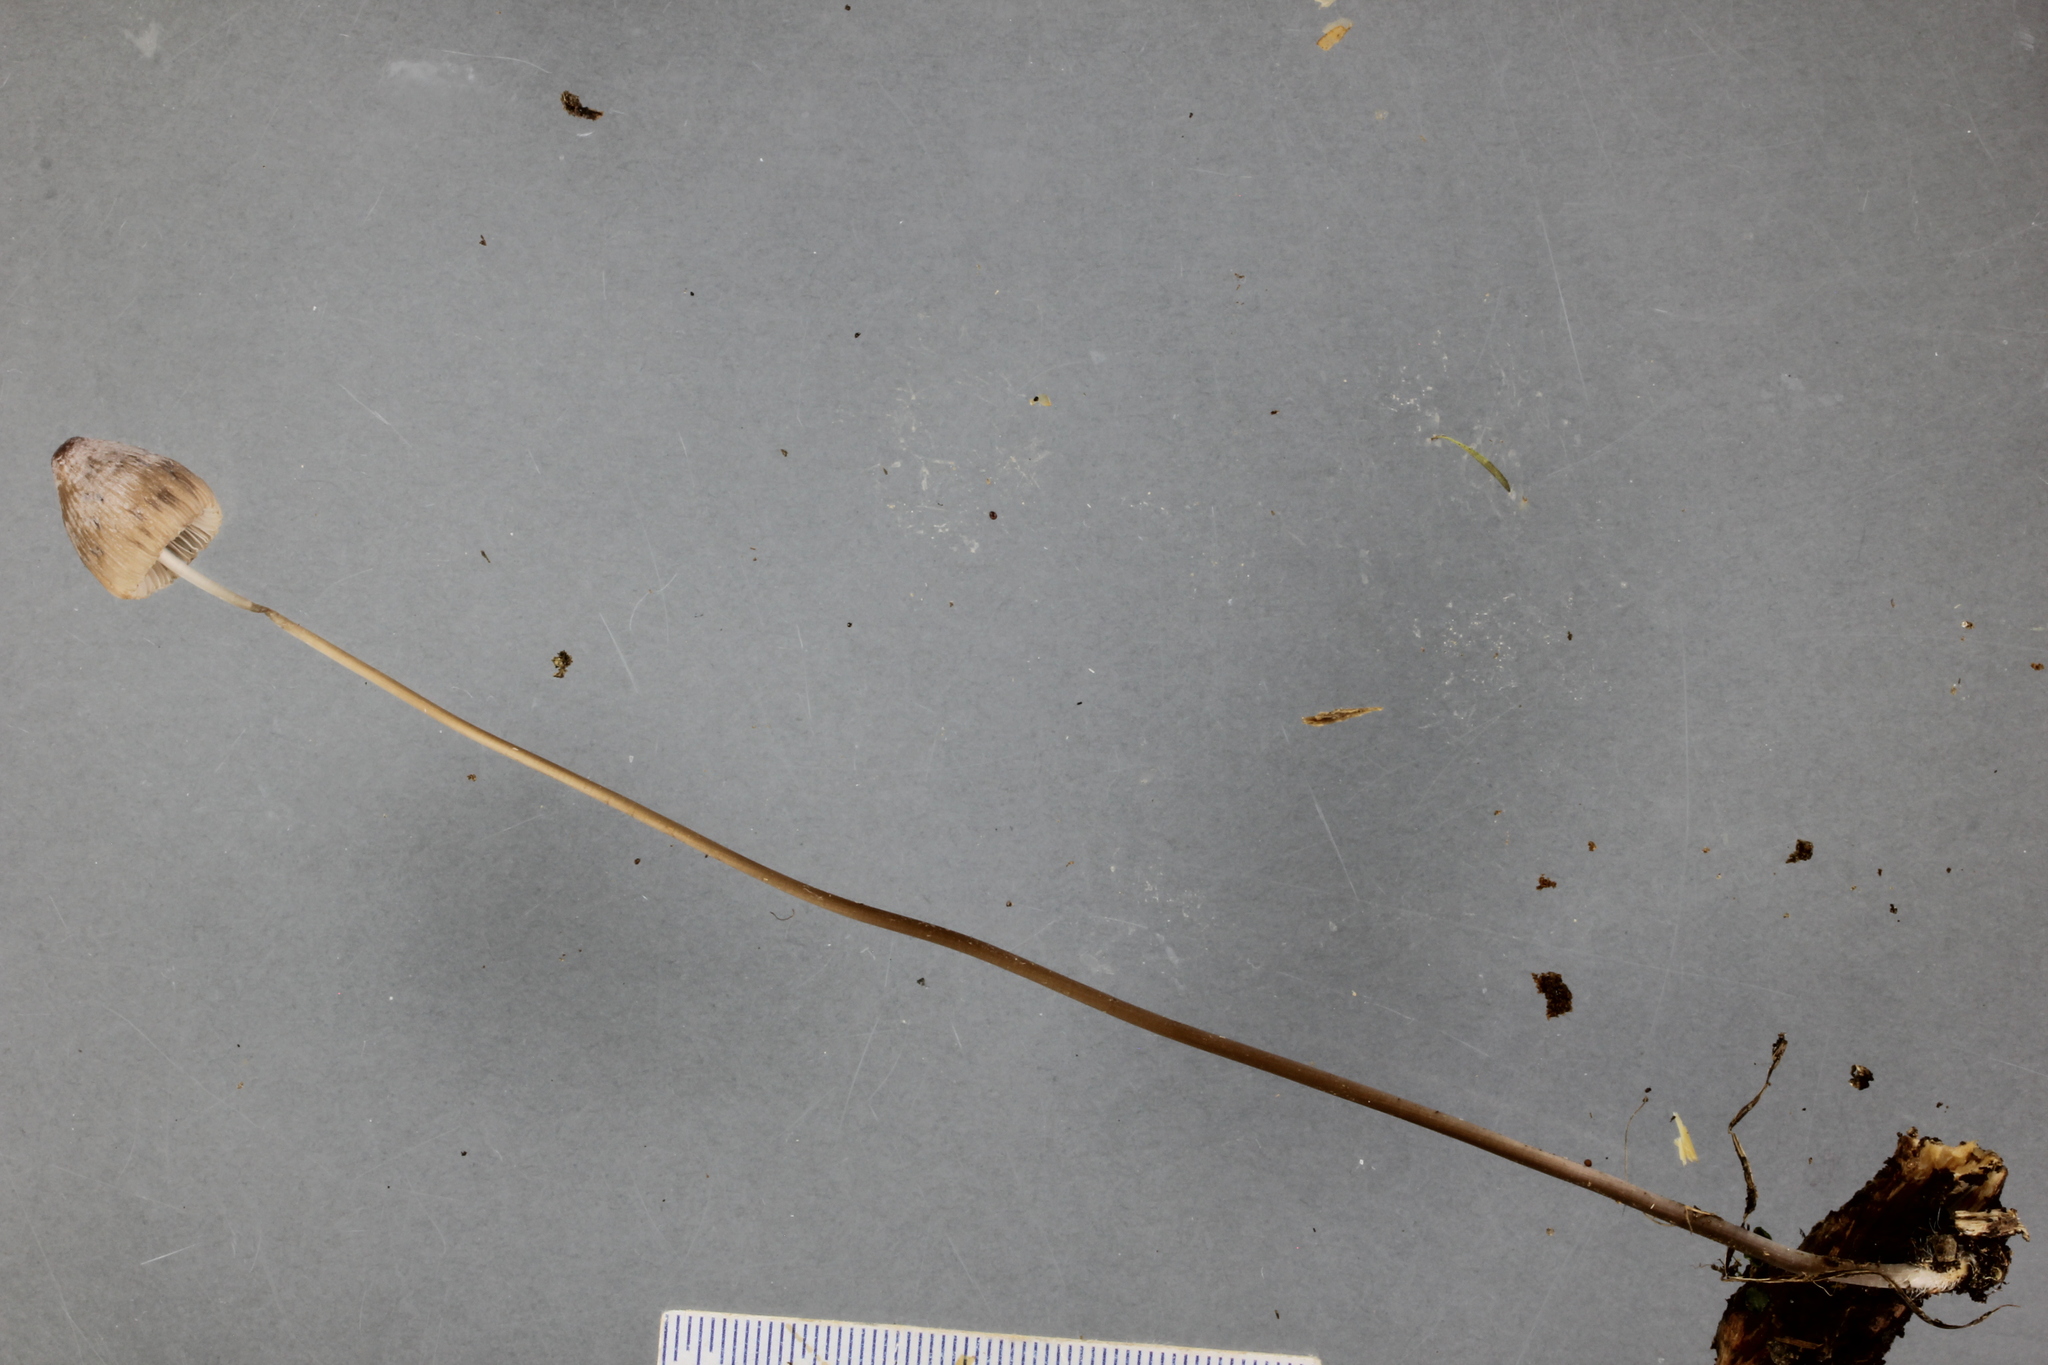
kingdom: Fungi
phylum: Basidiomycota
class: Agaricomycetes
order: Agaricales
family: Mycenaceae
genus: Mycena
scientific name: Mycena filopes
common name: Iodine bonnet
